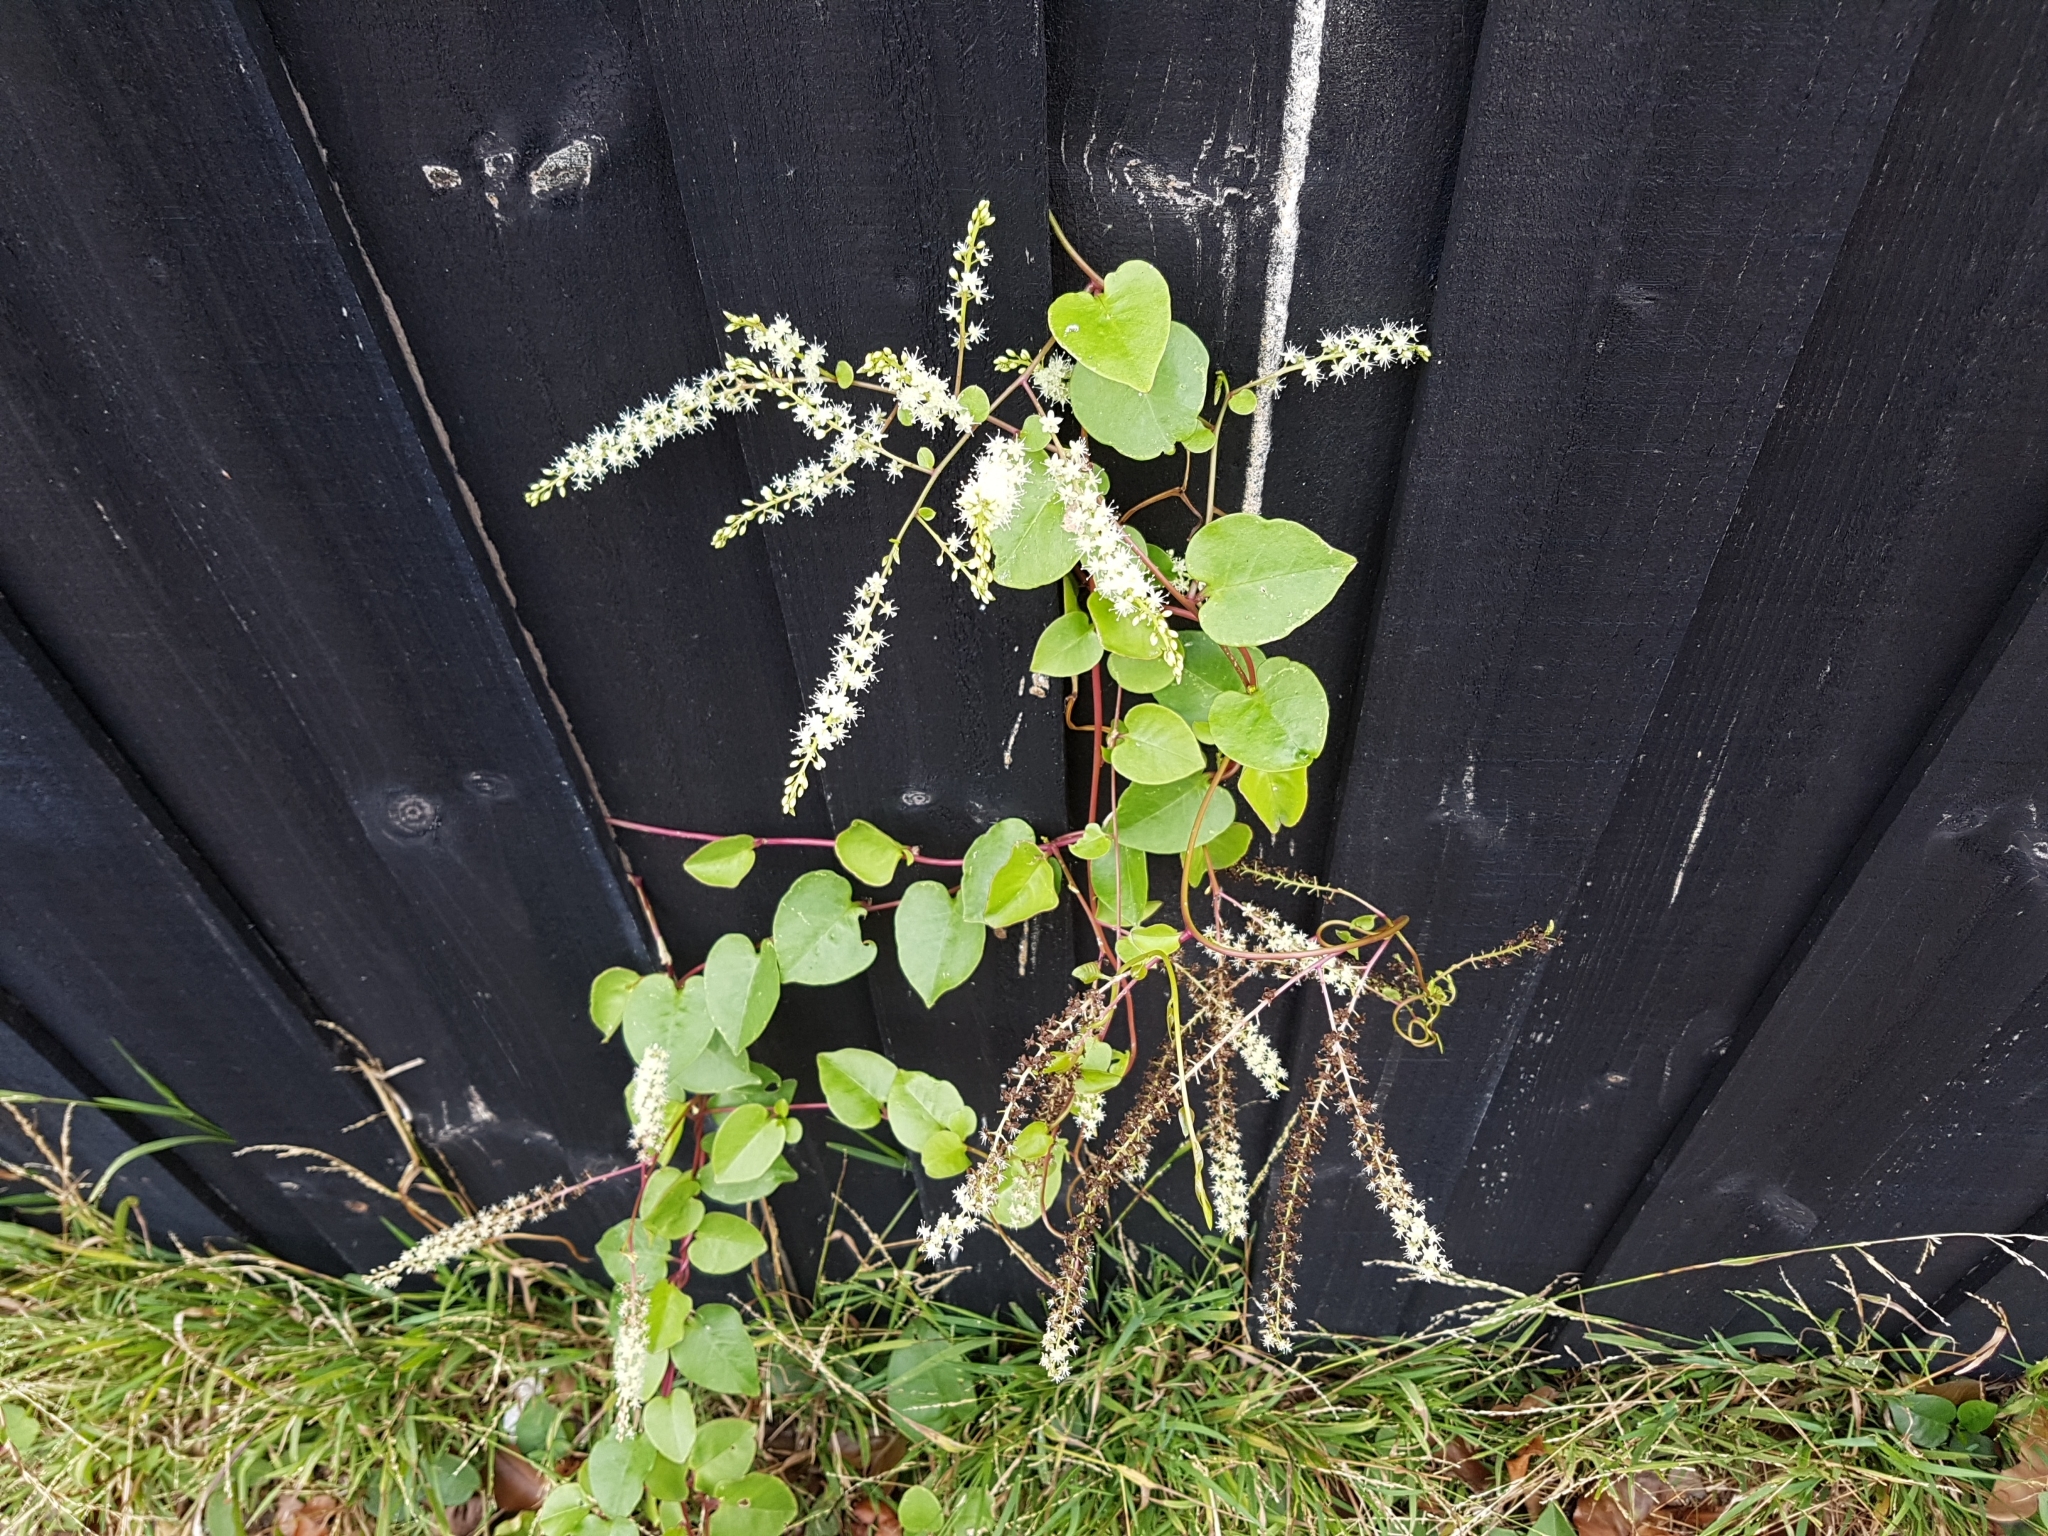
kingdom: Plantae
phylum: Tracheophyta
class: Magnoliopsida
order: Caryophyllales
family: Basellaceae
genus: Anredera
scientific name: Anredera cordifolia
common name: Heartleaf madeiravine
